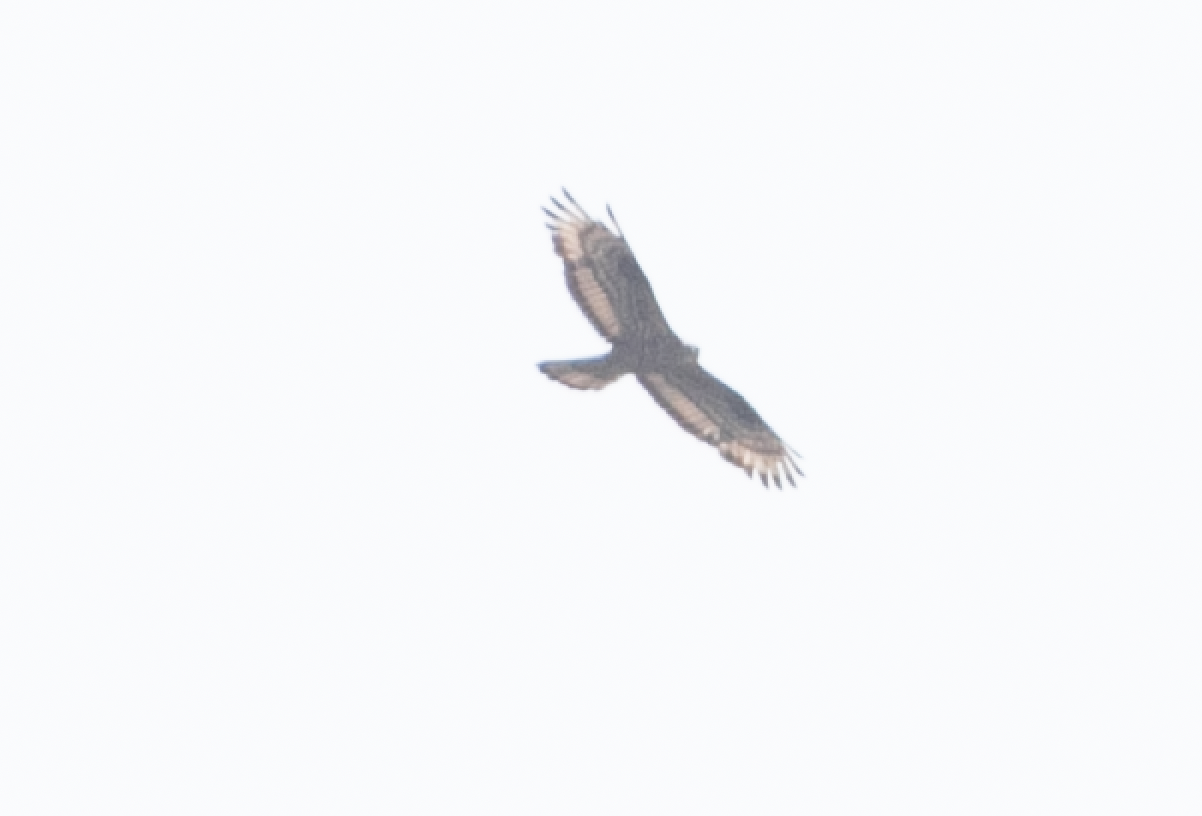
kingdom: Animalia
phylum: Chordata
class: Aves
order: Accipitriformes
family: Accipitridae
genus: Pernis
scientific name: Pernis apivorus
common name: European honey buzzard
